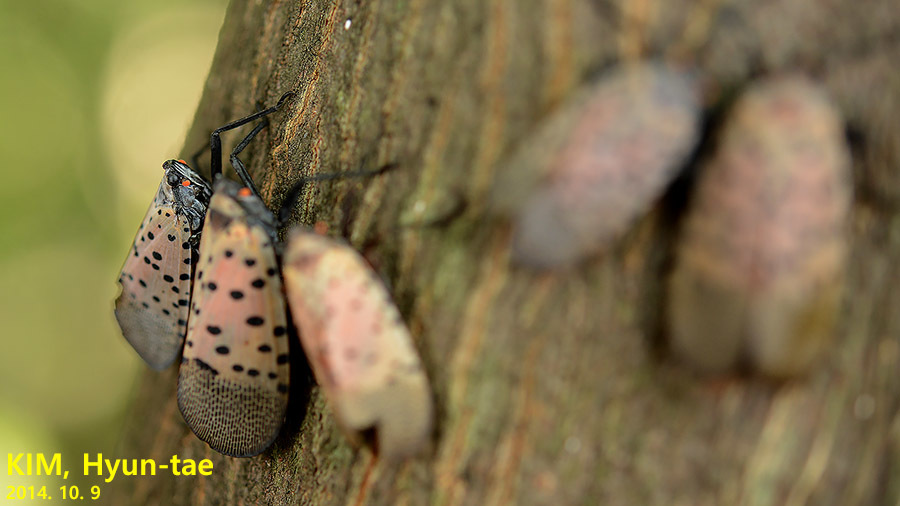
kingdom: Animalia
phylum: Arthropoda
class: Insecta
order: Hemiptera
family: Fulgoridae
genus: Lycorma
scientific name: Lycorma delicatula
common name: Spotted lanternfly
